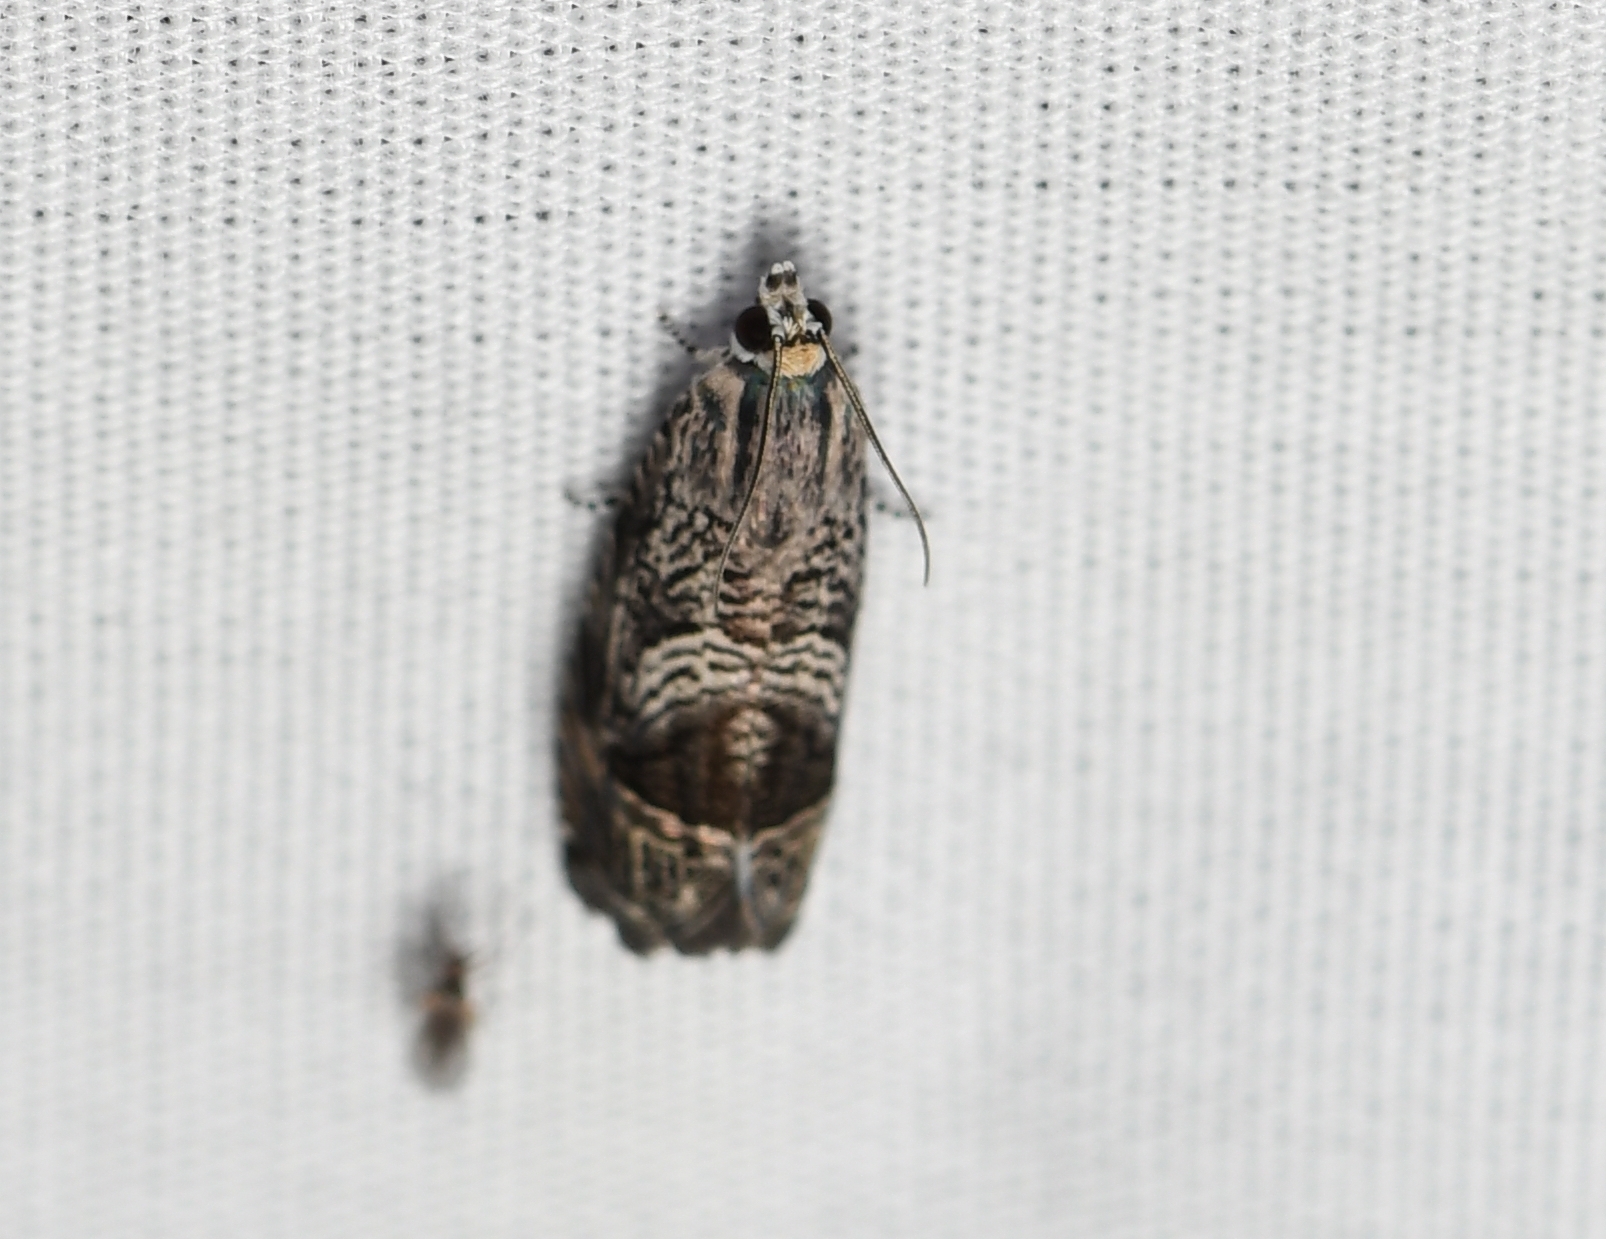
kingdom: Animalia
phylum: Arthropoda
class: Insecta
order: Lepidoptera
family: Tortricidae
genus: Ofatulena
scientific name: Ofatulena duodecemstriata
